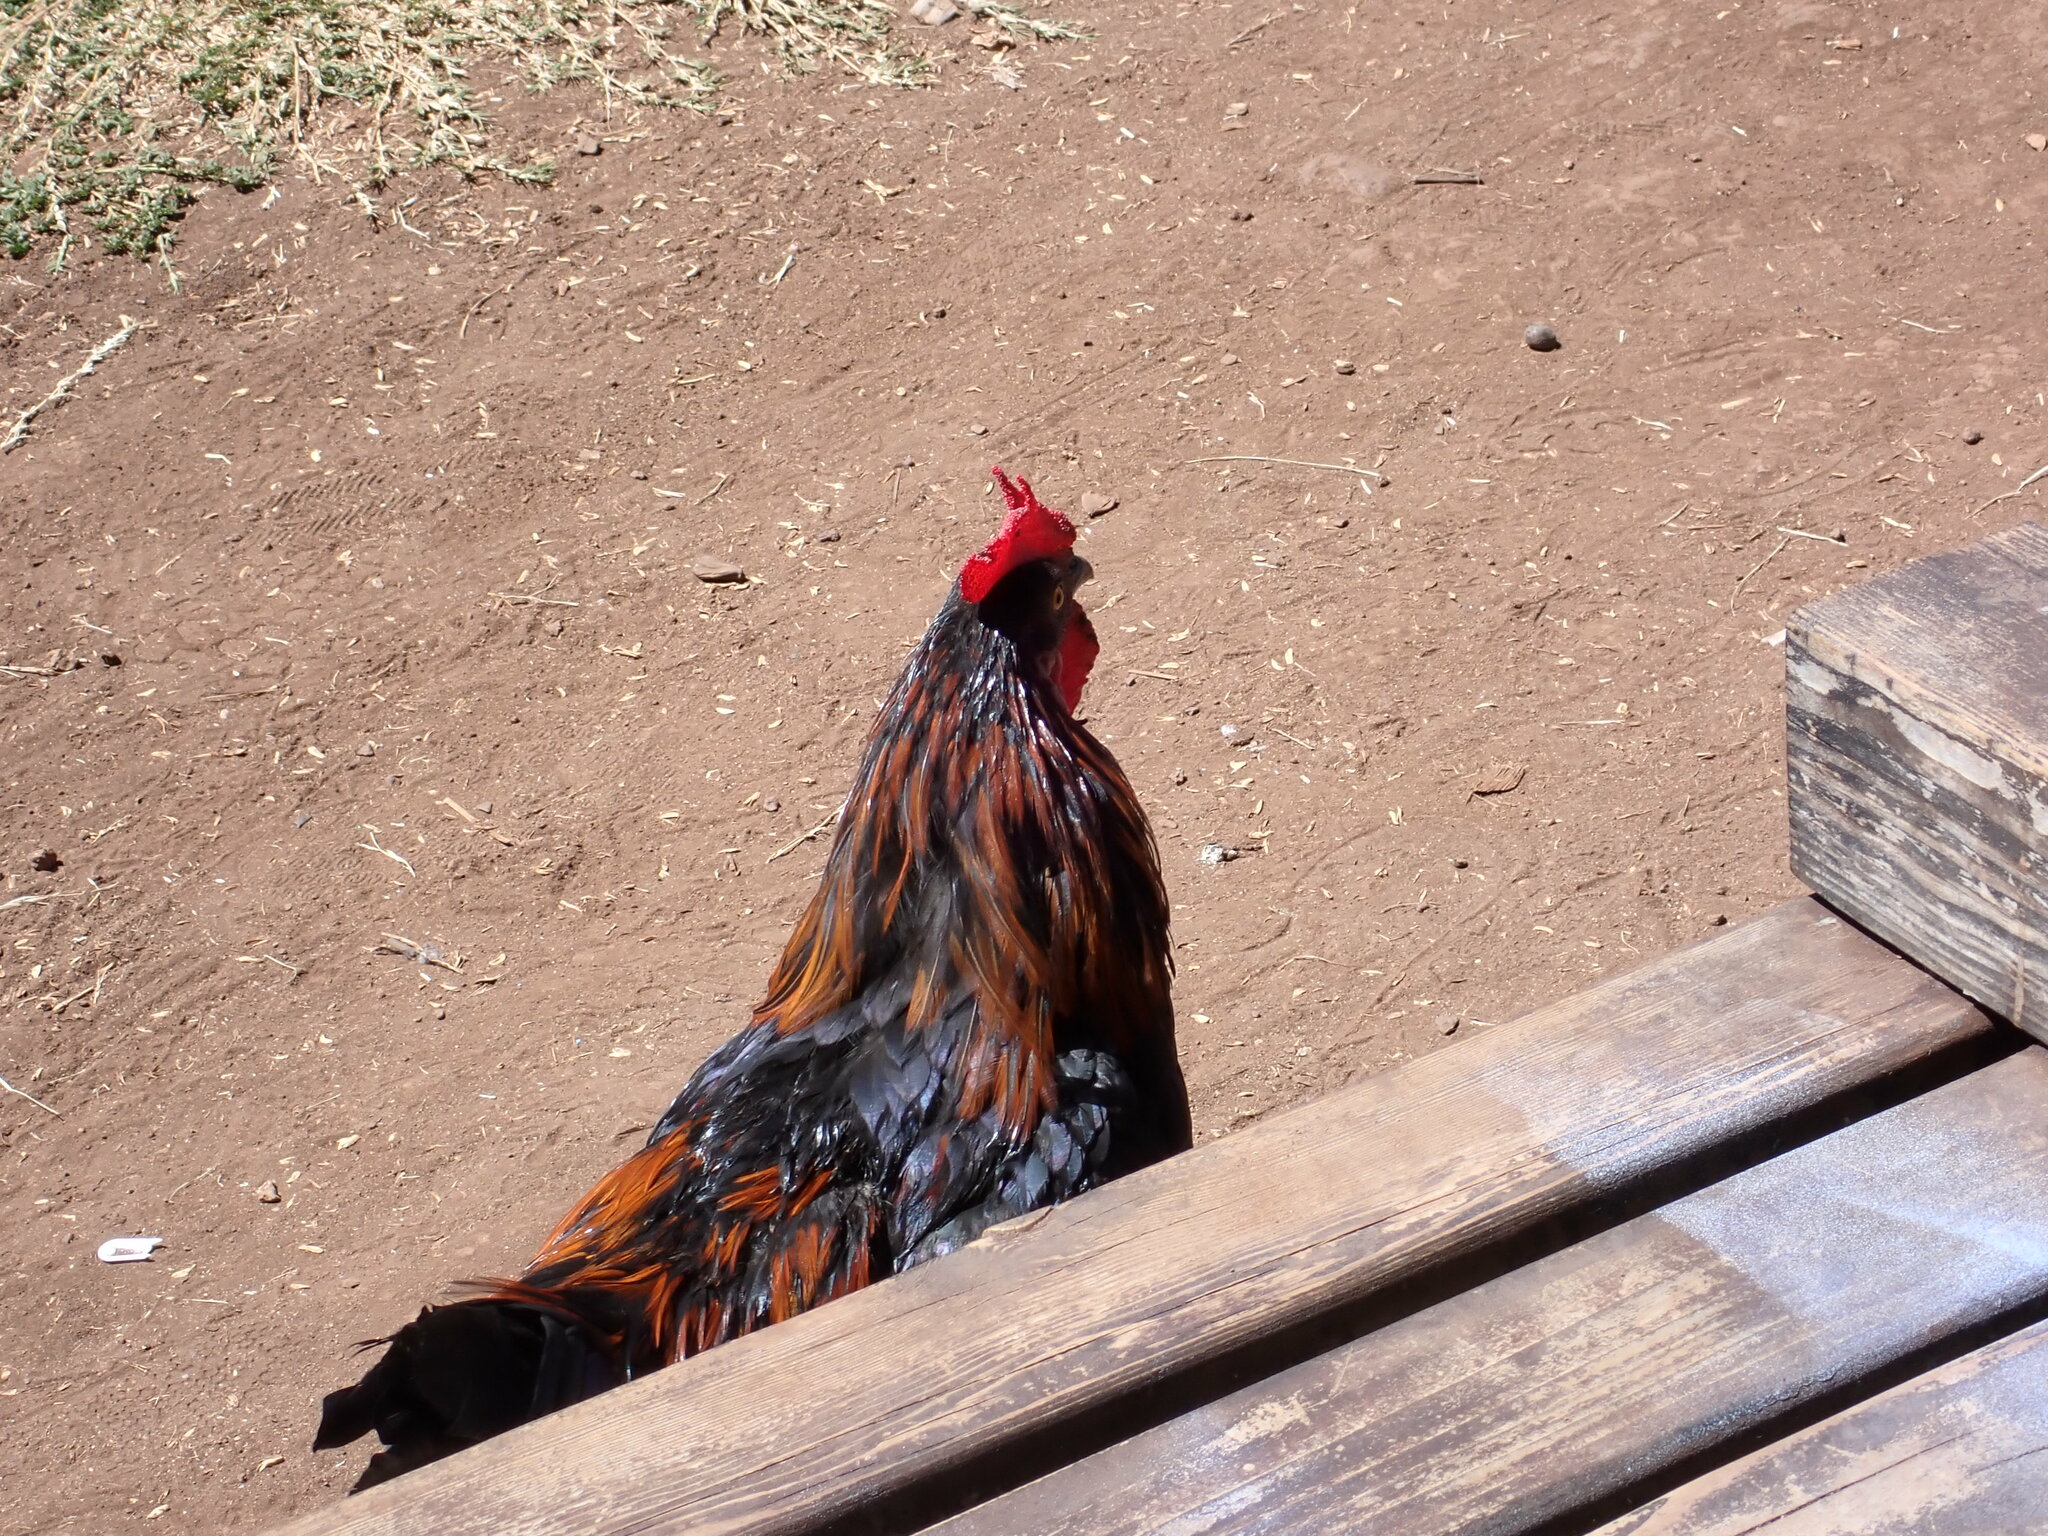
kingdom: Animalia
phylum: Chordata
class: Aves
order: Galliformes
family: Phasianidae
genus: Gallus
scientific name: Gallus gallus
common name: Red junglefowl
